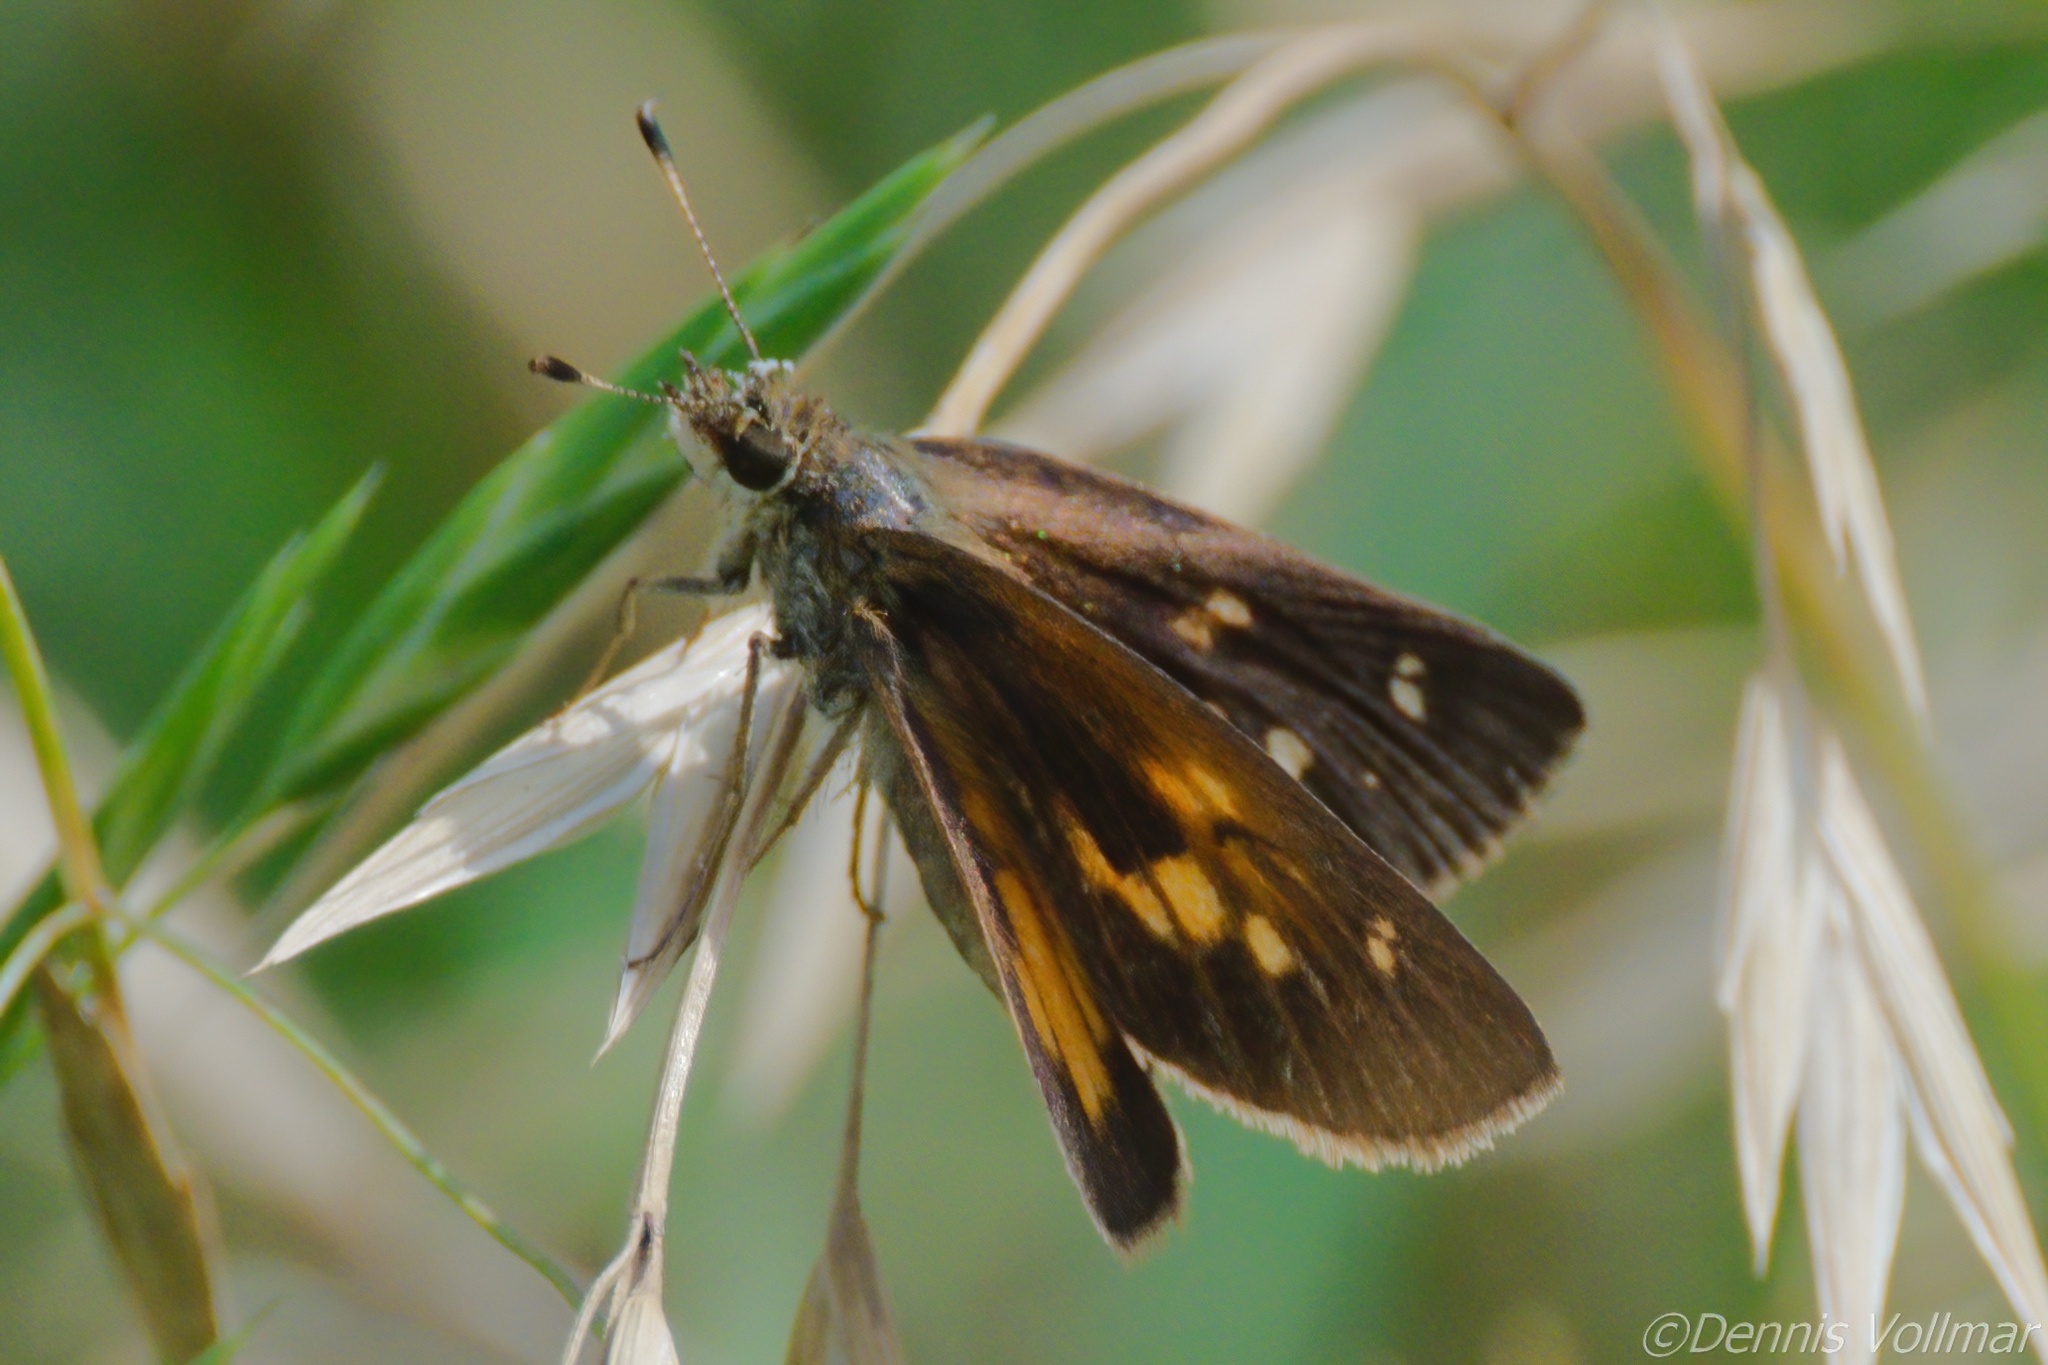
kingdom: Animalia
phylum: Arthropoda
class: Insecta
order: Lepidoptera
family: Hesperiidae
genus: Poanes
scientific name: Poanes viator
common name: Broad-winged skipper
